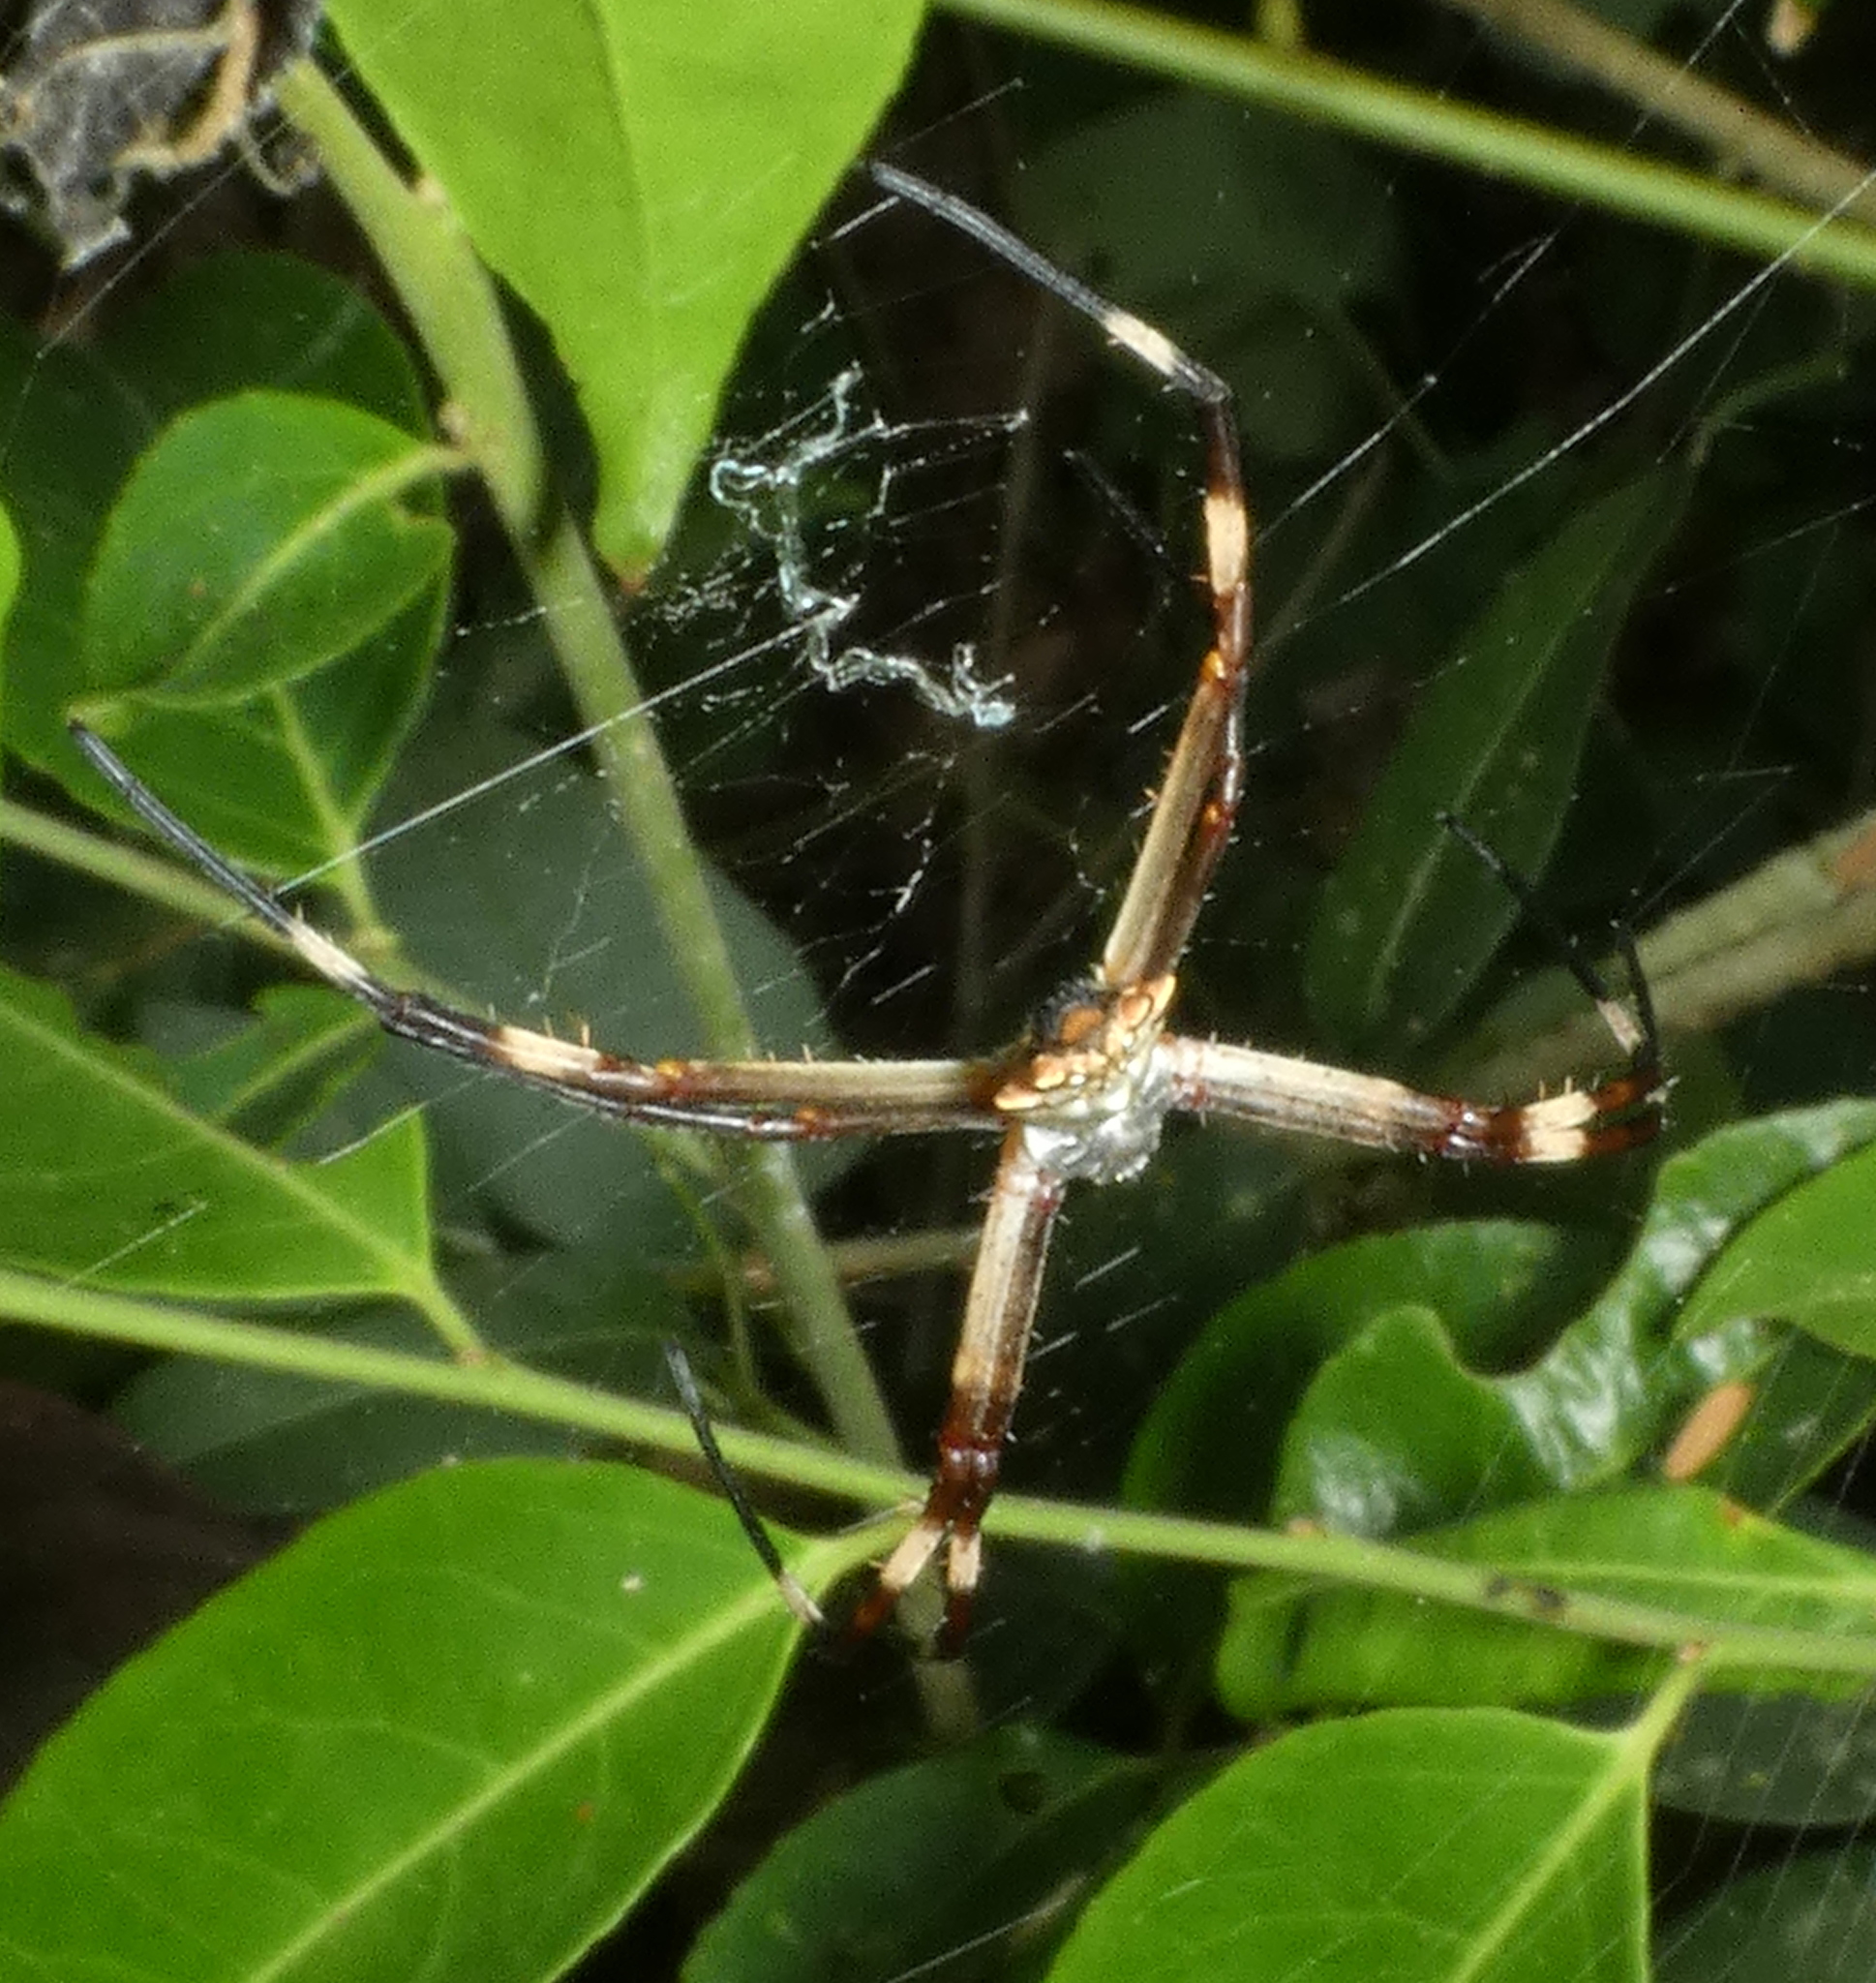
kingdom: Animalia
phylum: Arthropoda
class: Arachnida
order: Araneae
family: Araneidae
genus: Argiope
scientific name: Argiope argentata
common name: Orb weavers
